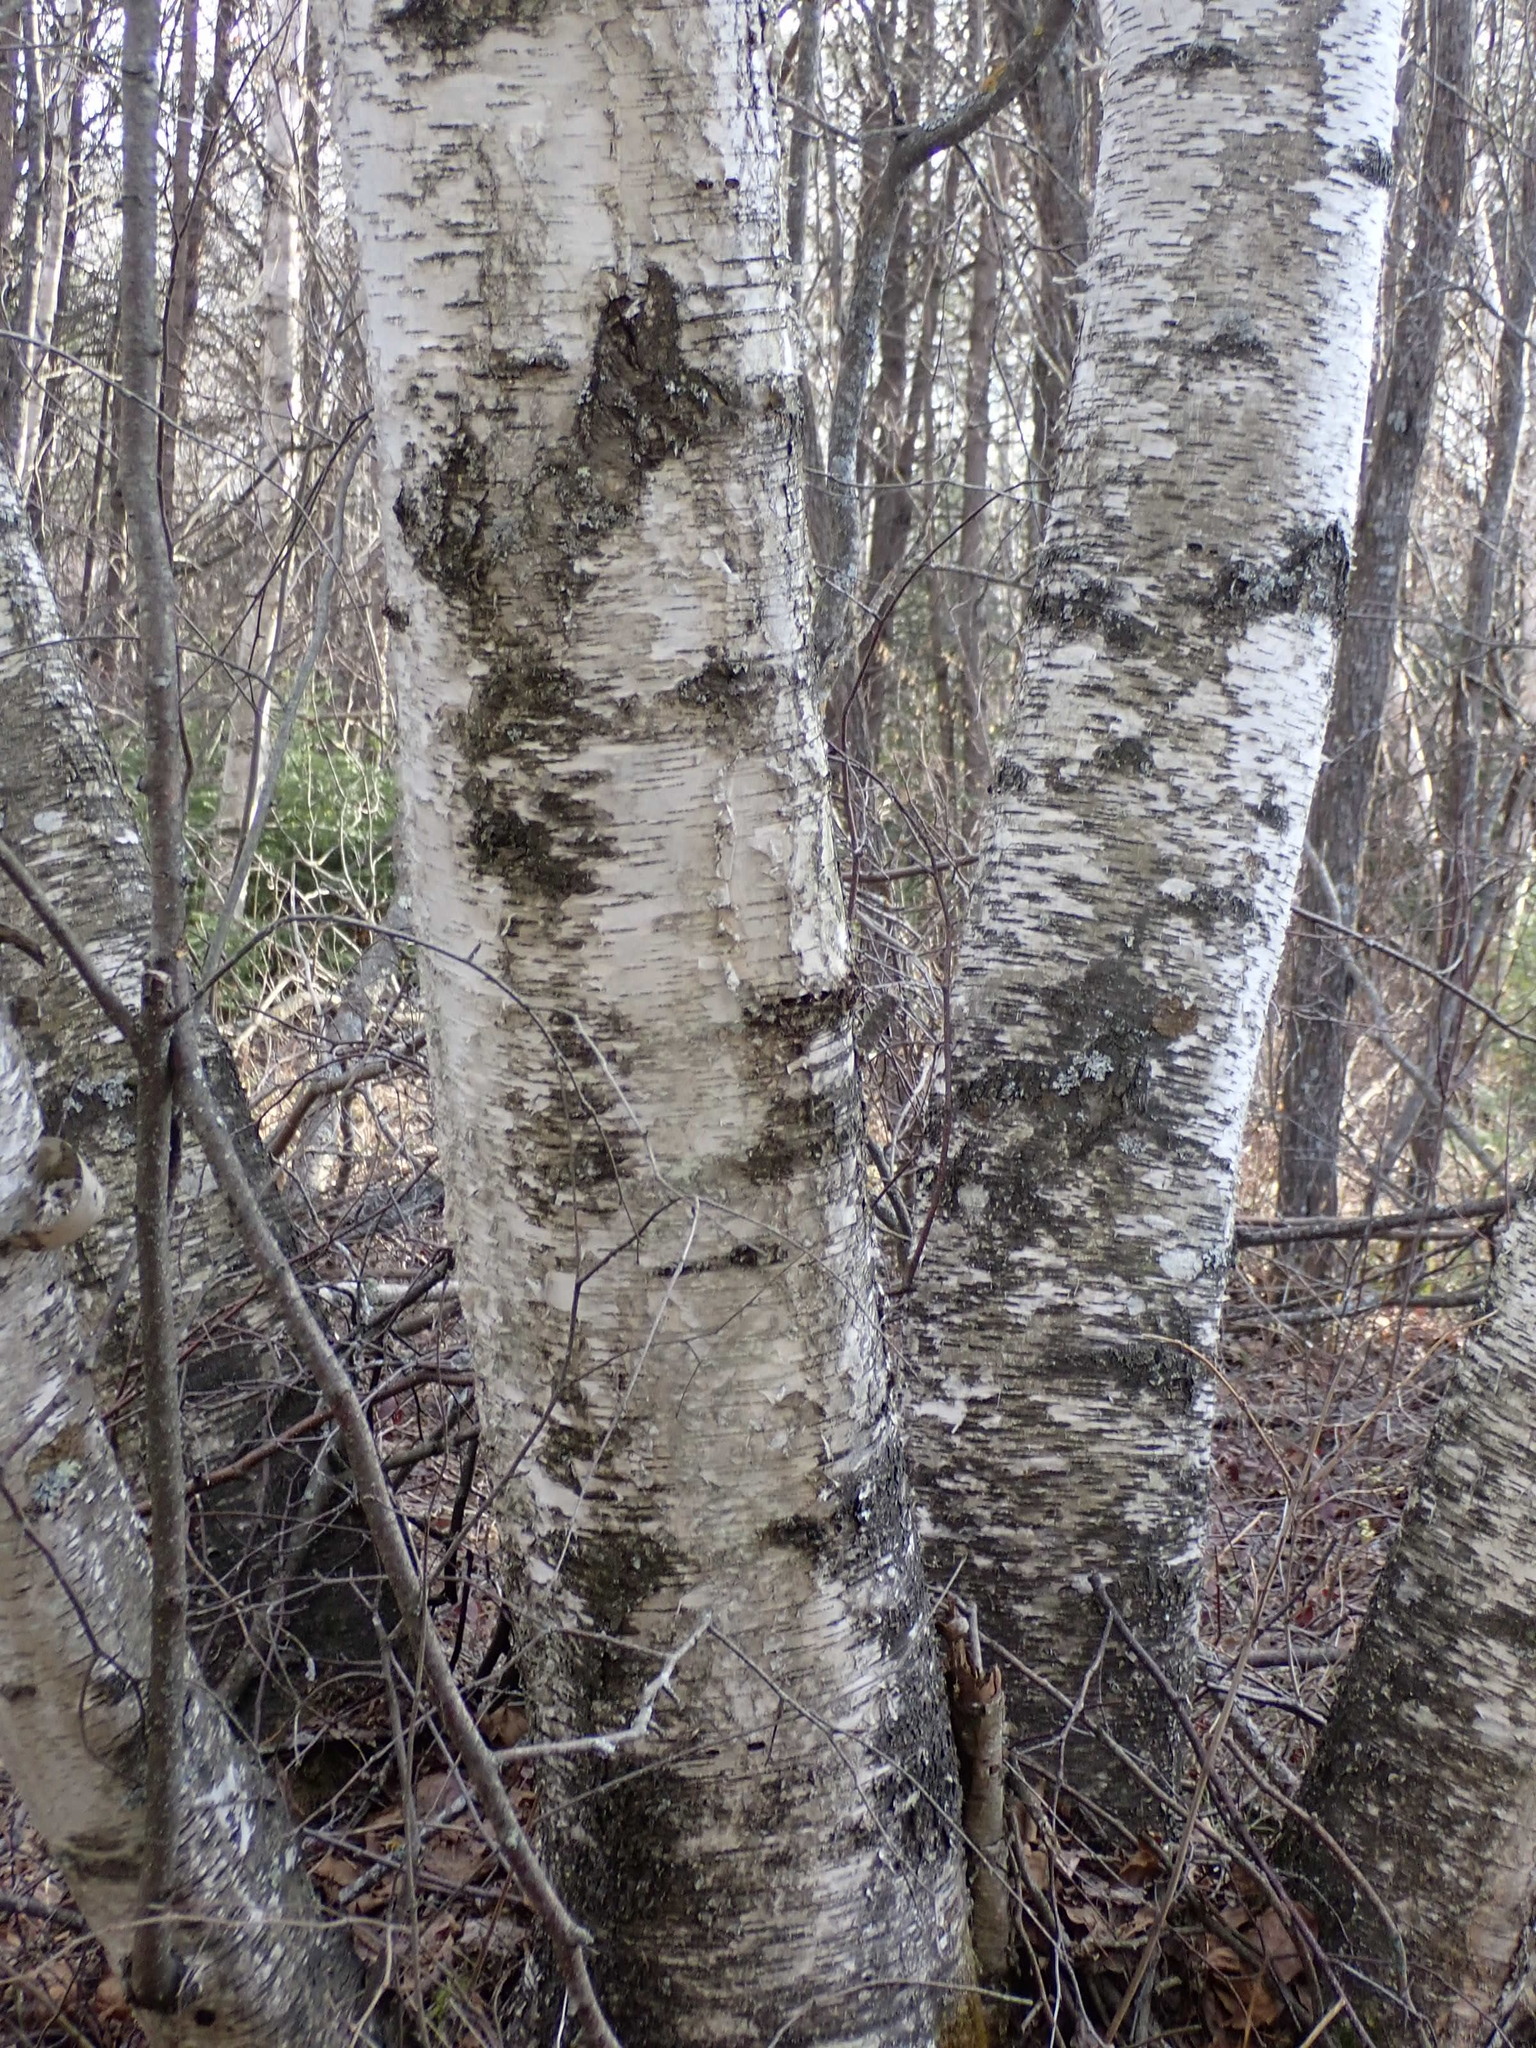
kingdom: Plantae
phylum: Tracheophyta
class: Magnoliopsida
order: Fagales
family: Betulaceae
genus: Betula
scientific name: Betula papyrifera
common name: Paper birch
